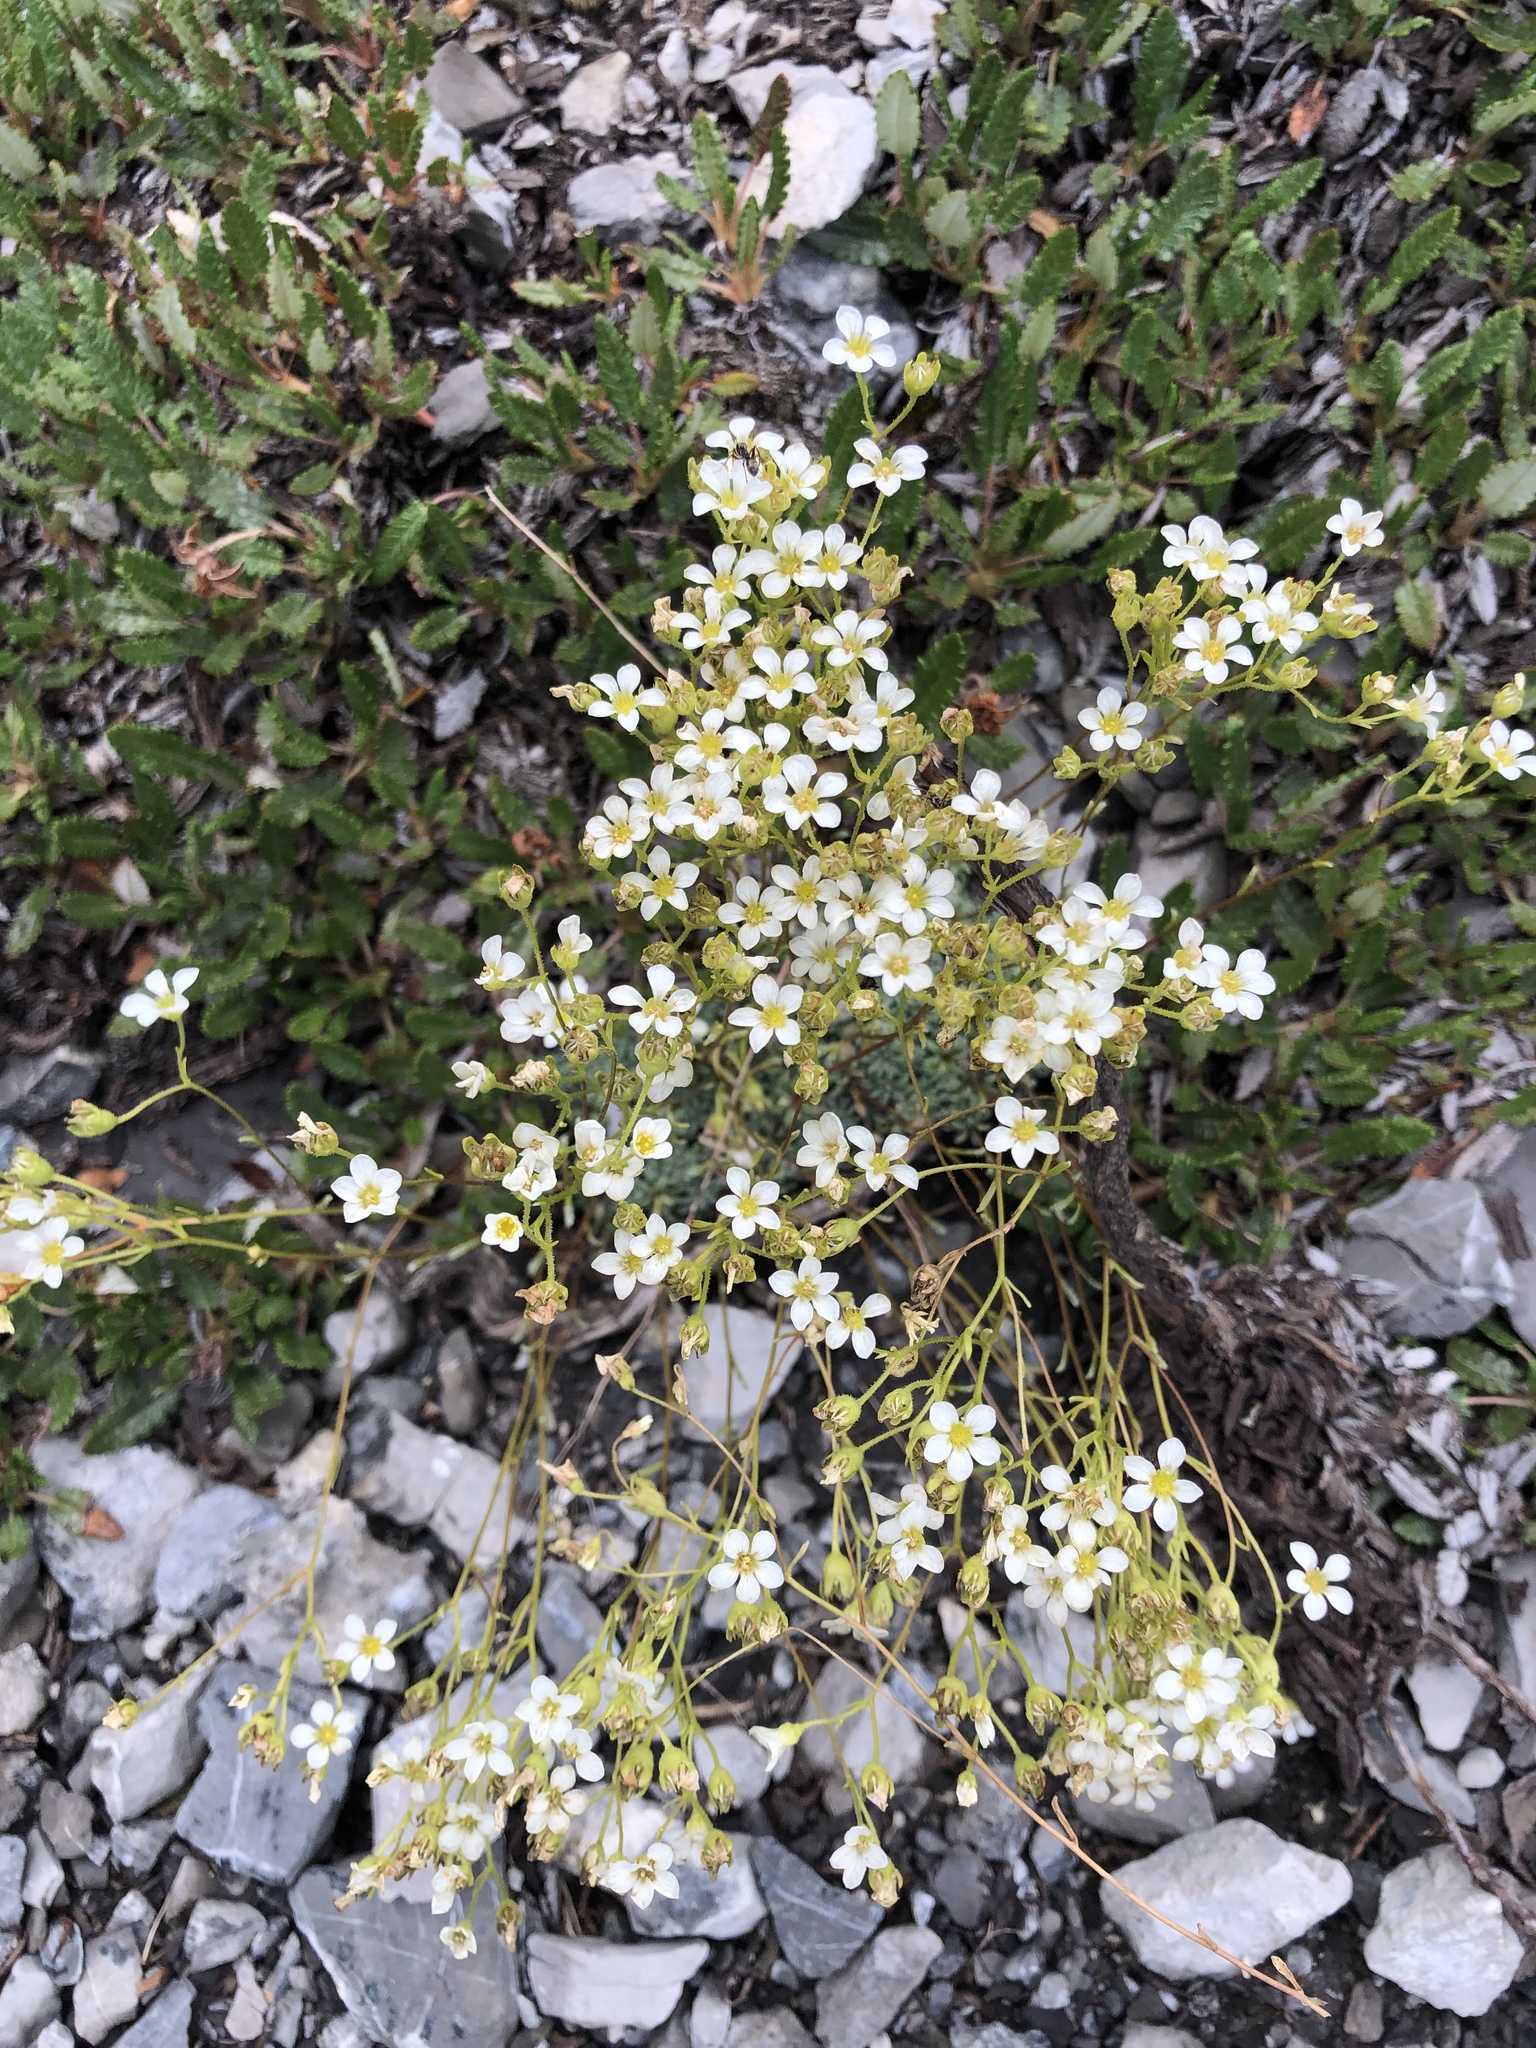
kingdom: Plantae
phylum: Tracheophyta
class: Magnoliopsida
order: Saxifragales
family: Saxifragaceae
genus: Saxifraga
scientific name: Saxifraga paniculata
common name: Livelong saxifrage
